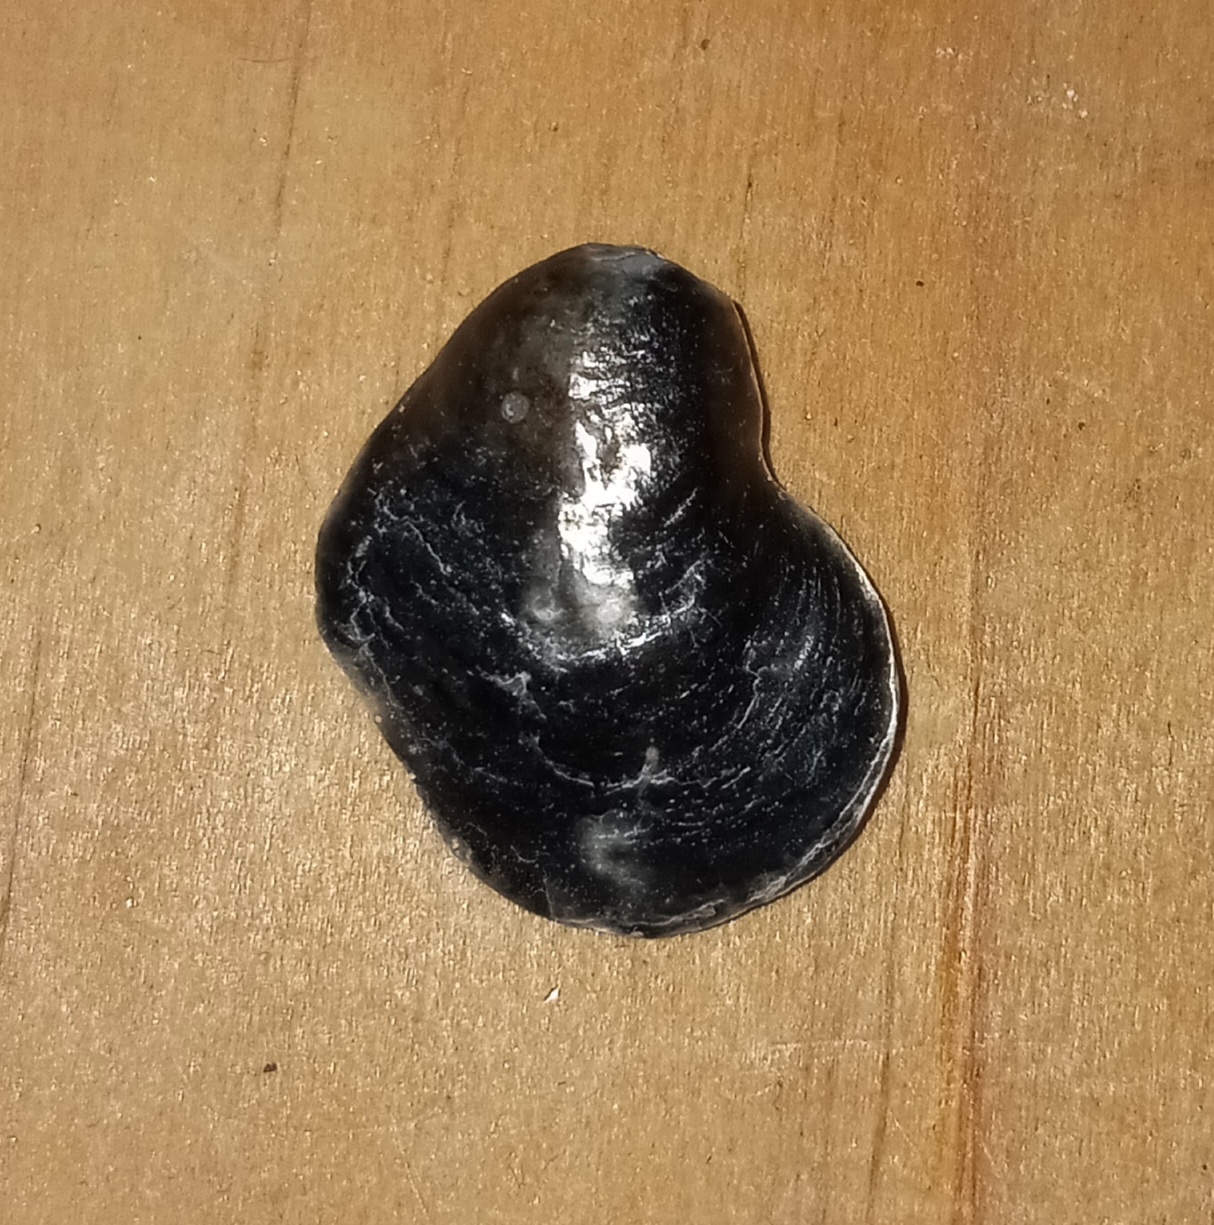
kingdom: Animalia
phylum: Mollusca
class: Bivalvia
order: Pectinida
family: Anomiidae
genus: Anomia
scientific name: Anomia simplex
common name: Common jingle shell
